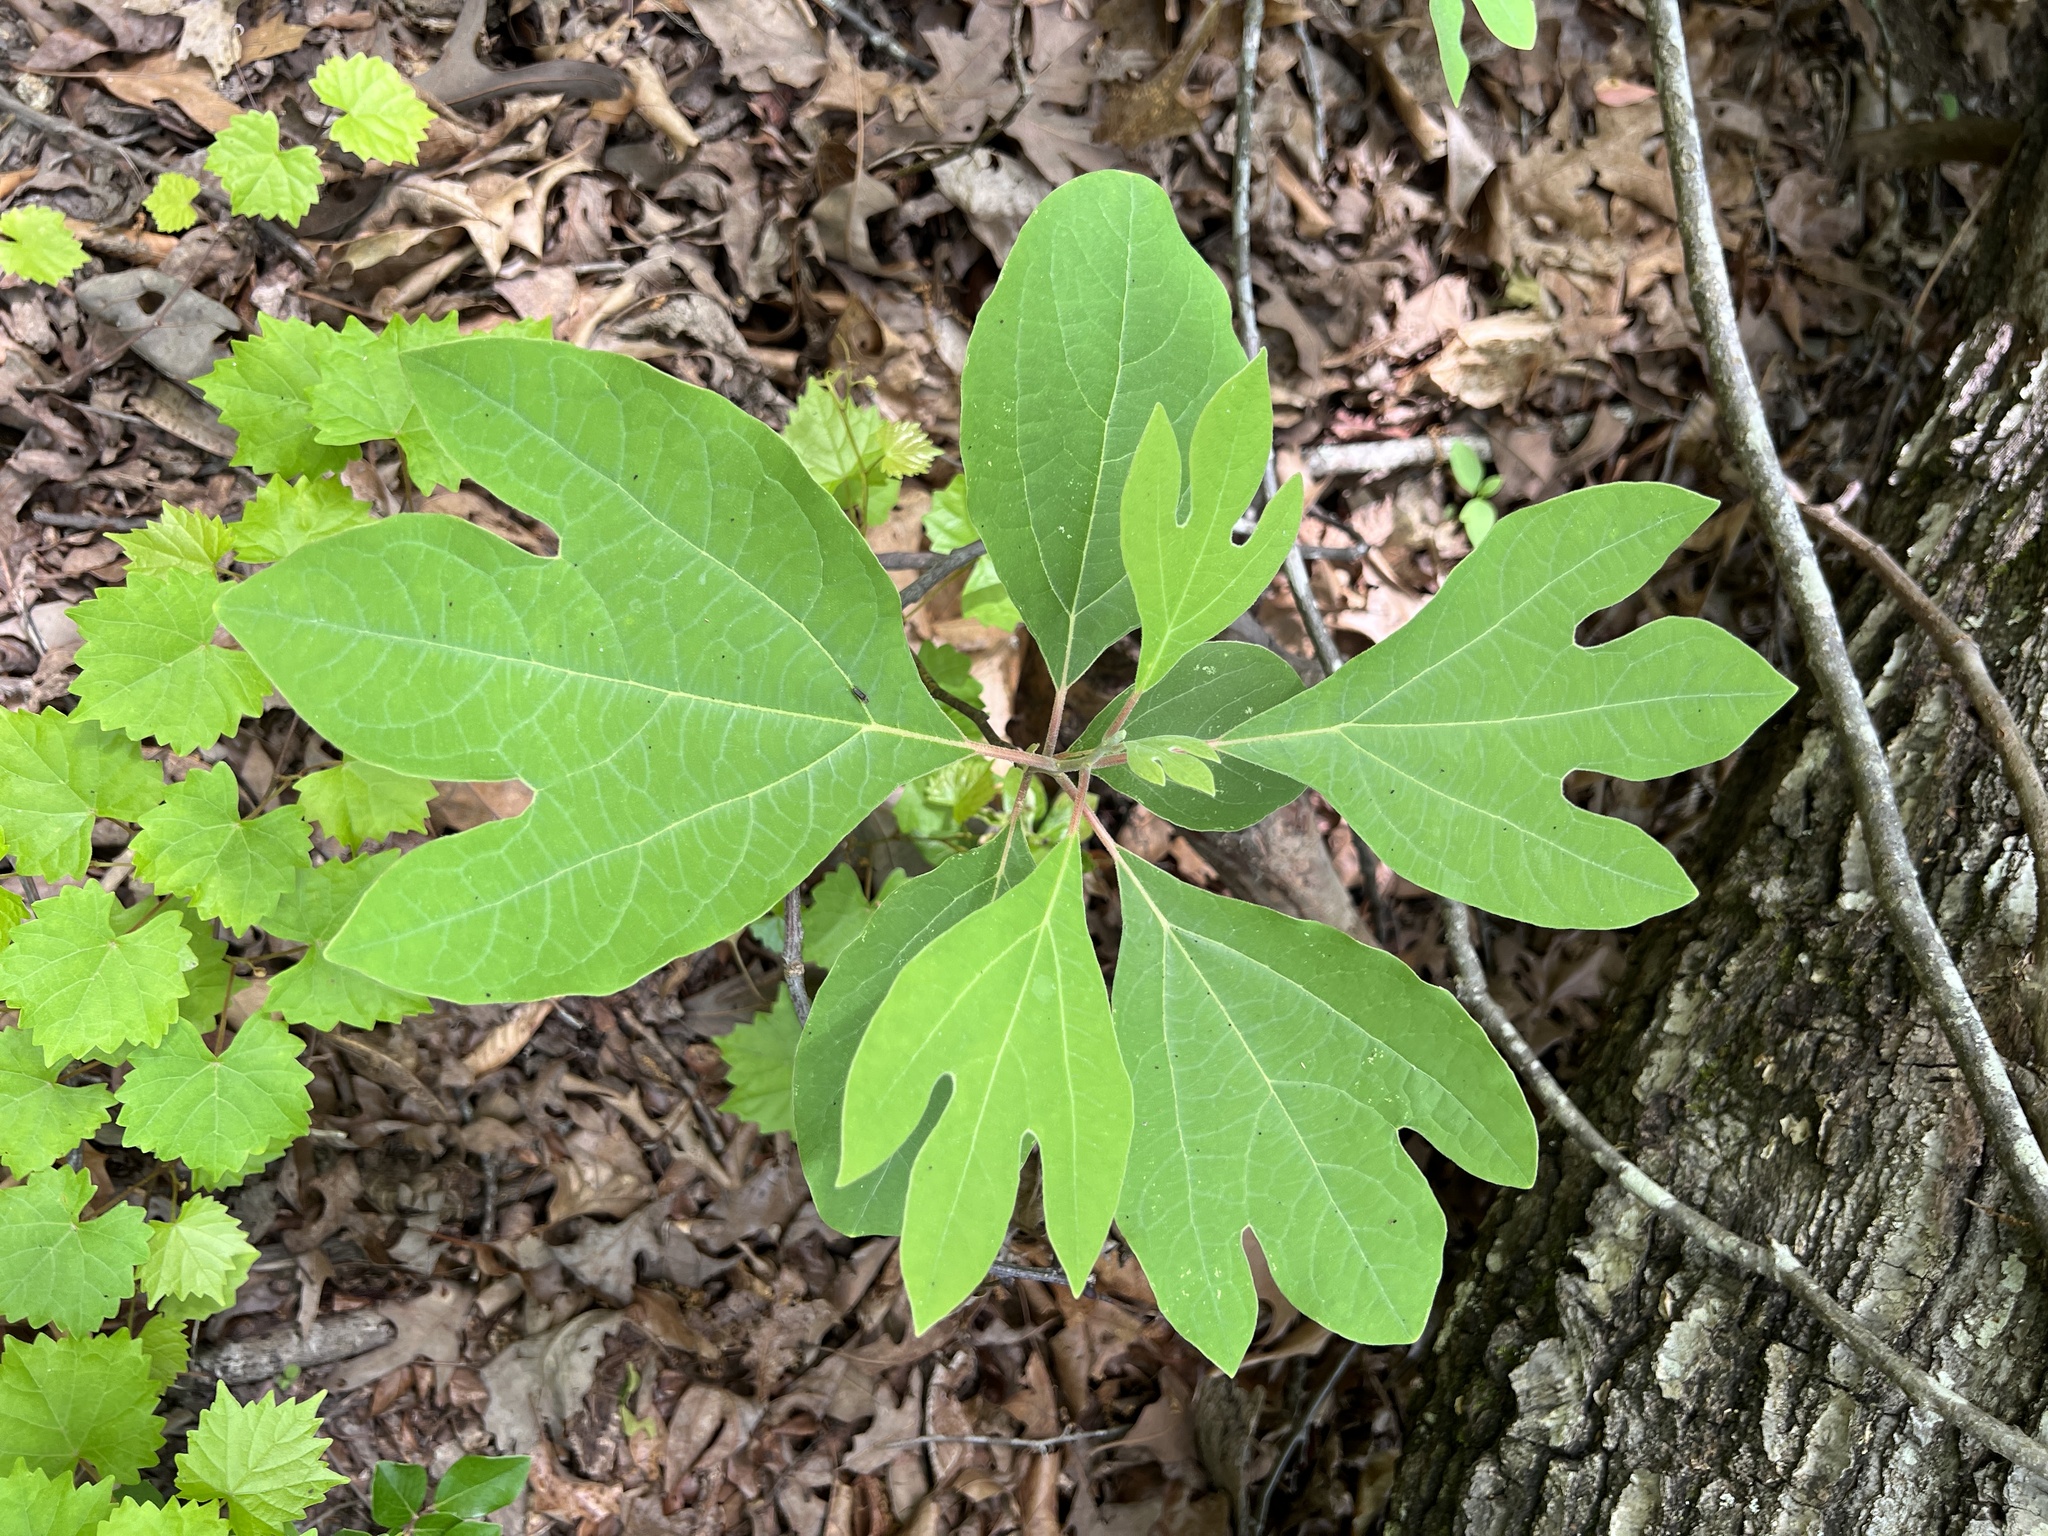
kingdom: Plantae
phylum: Tracheophyta
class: Magnoliopsida
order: Laurales
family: Lauraceae
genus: Sassafras
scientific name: Sassafras albidum
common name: Sassafras
